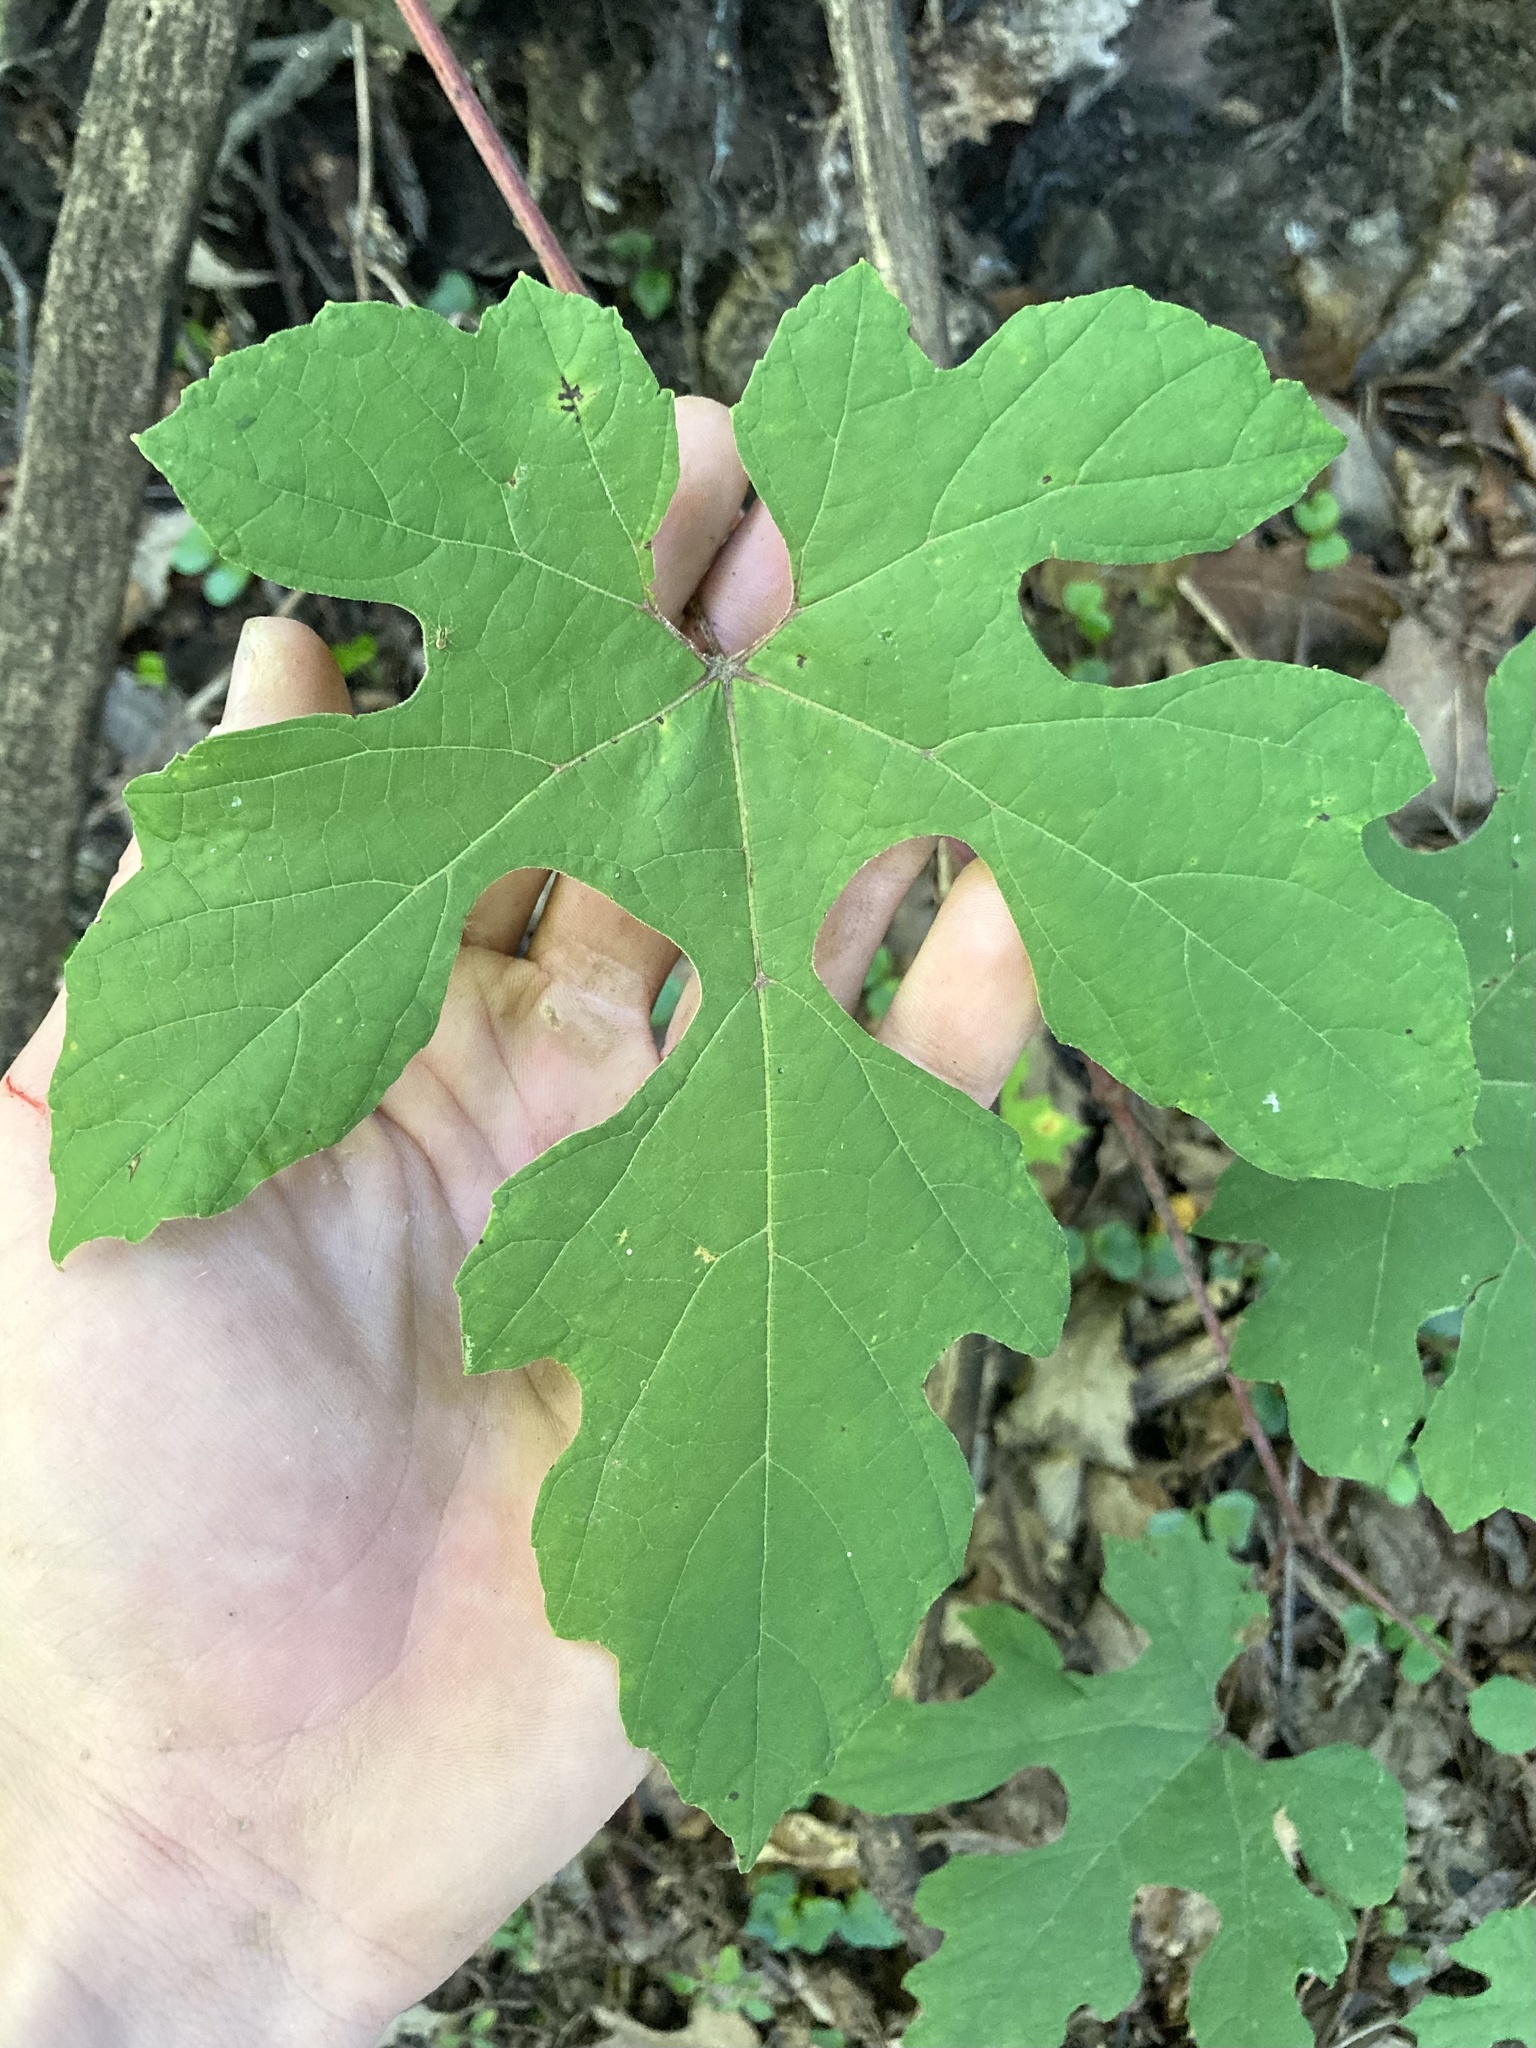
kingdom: Plantae
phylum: Tracheophyta
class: Magnoliopsida
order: Vitales
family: Vitaceae
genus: Vitis
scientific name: Vitis aestivalis
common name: Pigeon grape
